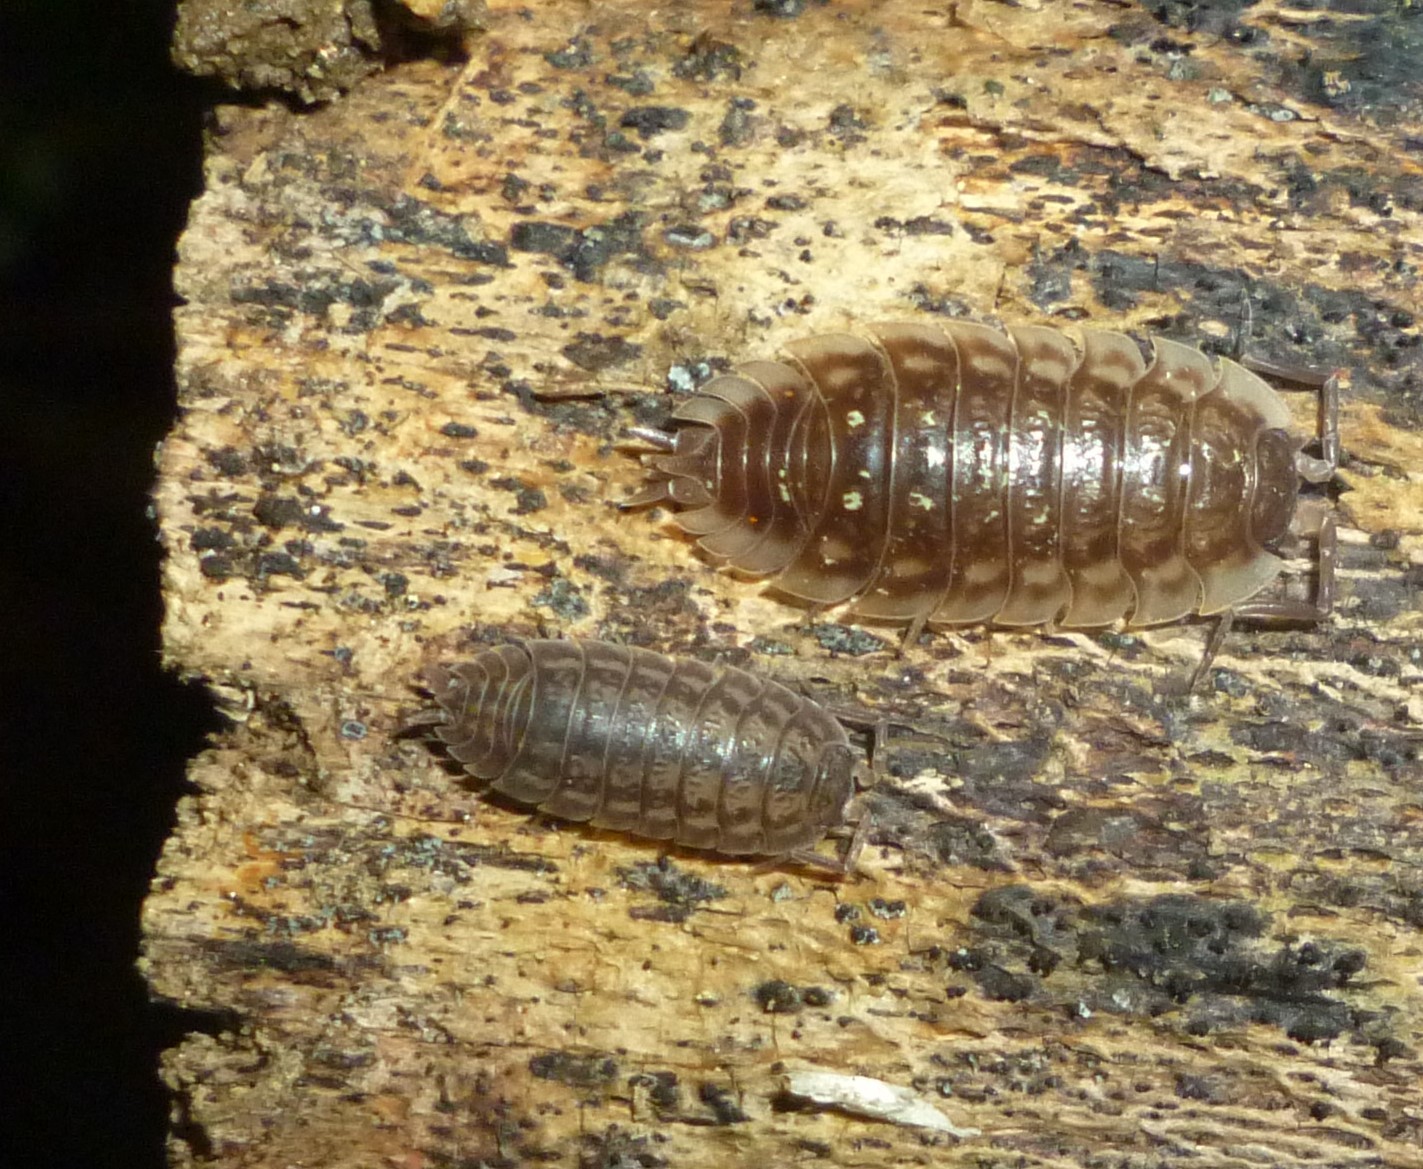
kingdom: Animalia
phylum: Arthropoda
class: Malacostraca
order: Isopoda
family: Trachelipodidae
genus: Trachelipus
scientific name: Trachelipus rathkii
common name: Isopod
